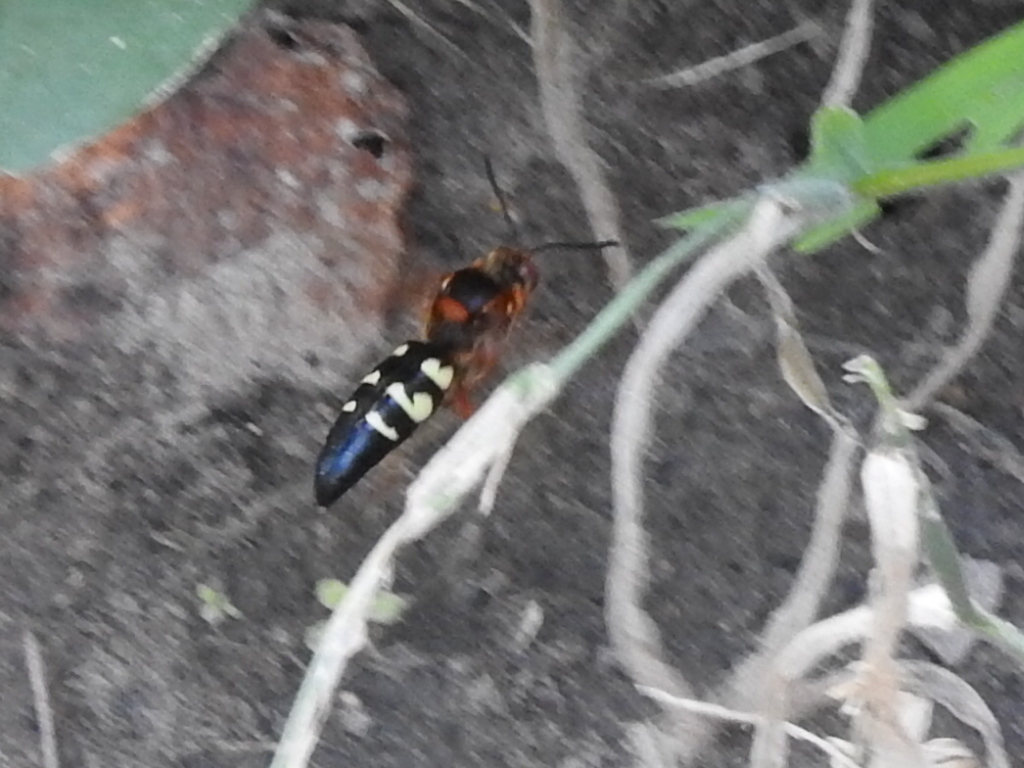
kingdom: Animalia
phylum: Arthropoda
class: Insecta
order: Hymenoptera
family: Crabronidae
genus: Sphecius
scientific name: Sphecius speciosus
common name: Cicada killer
